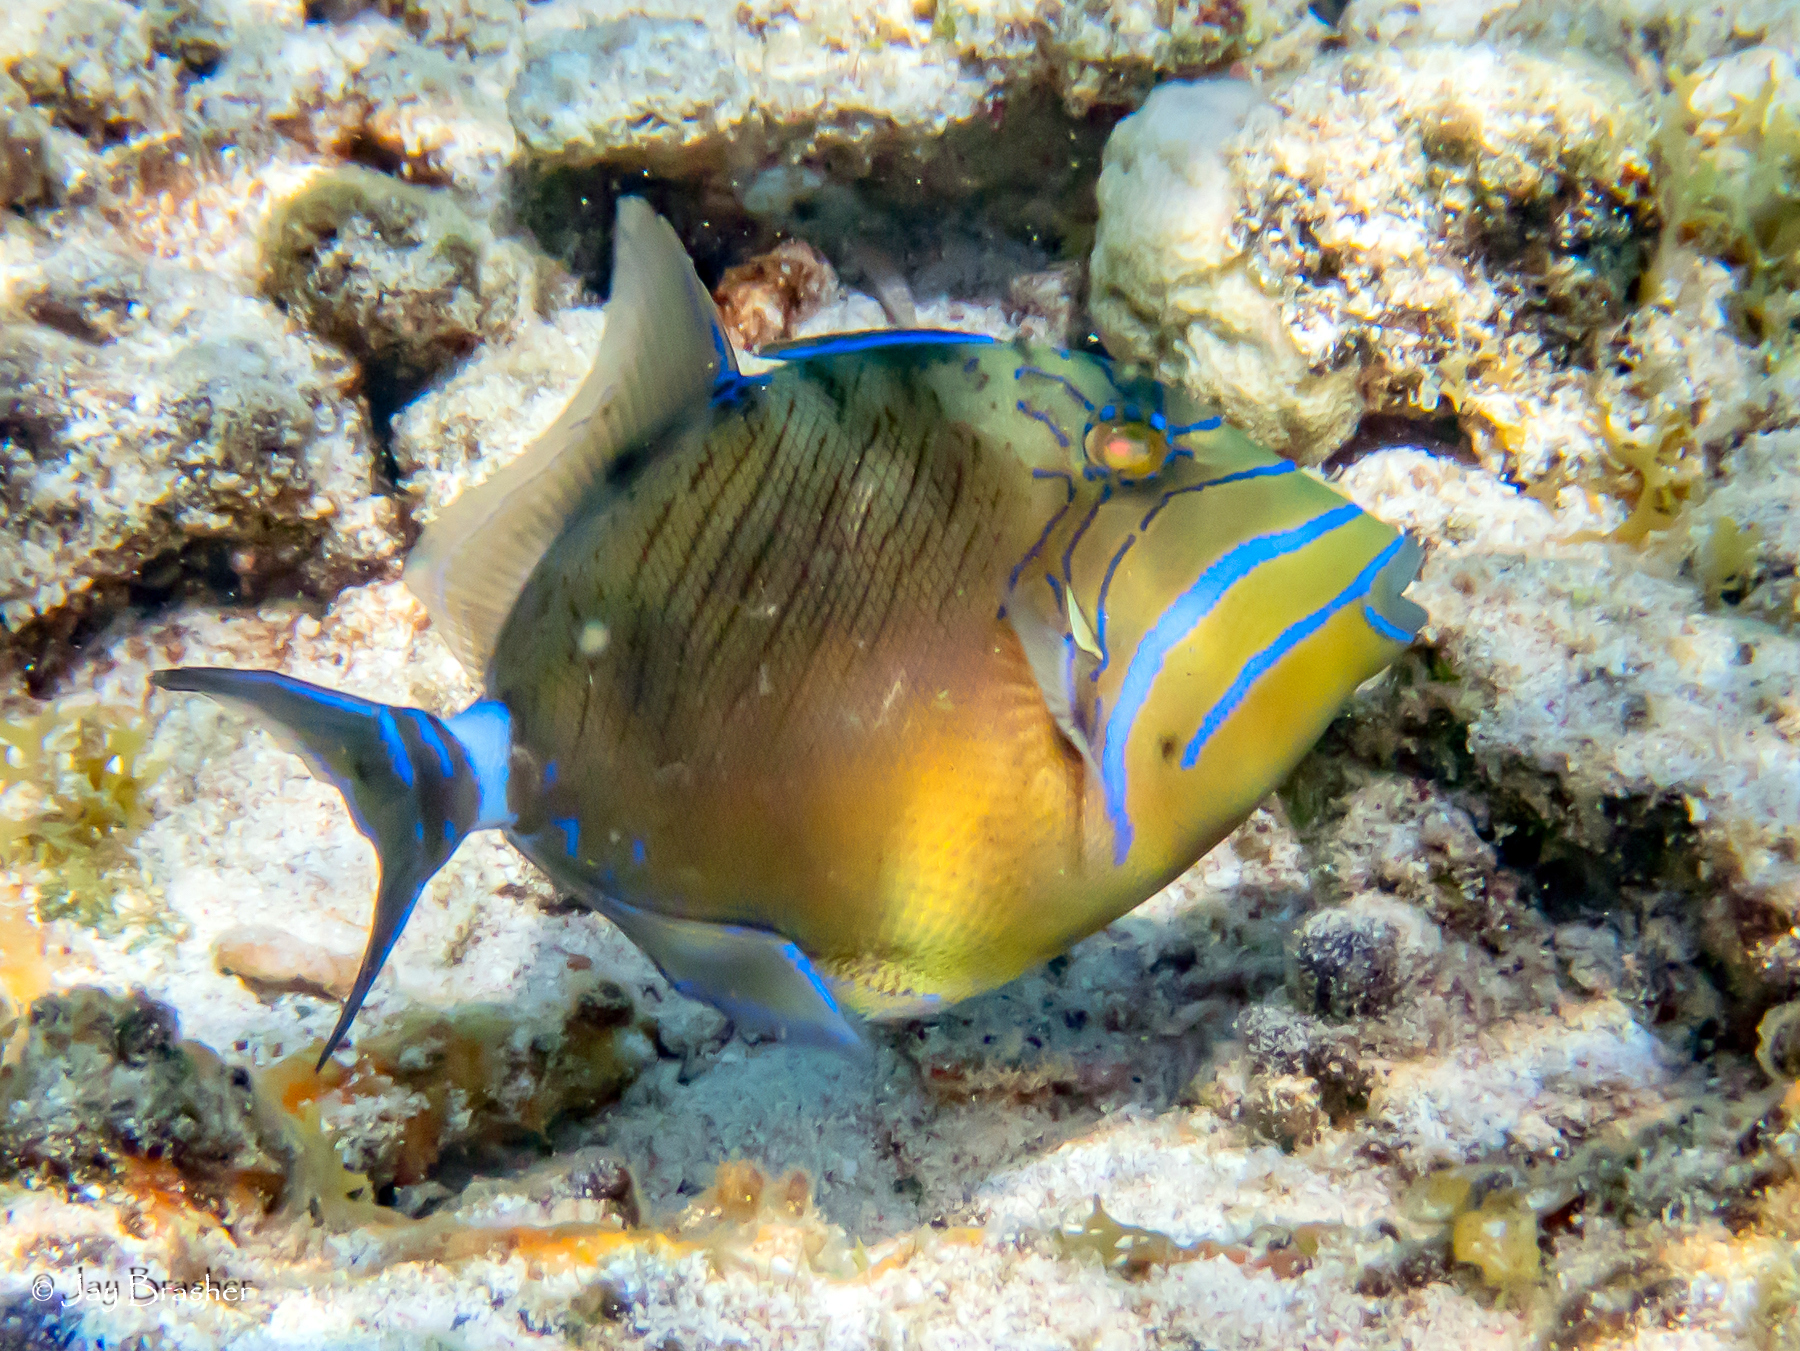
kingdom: Animalia
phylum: Chordata
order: Tetraodontiformes
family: Balistidae
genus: Balistes
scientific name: Balistes vetula
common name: Queen triggerfish
